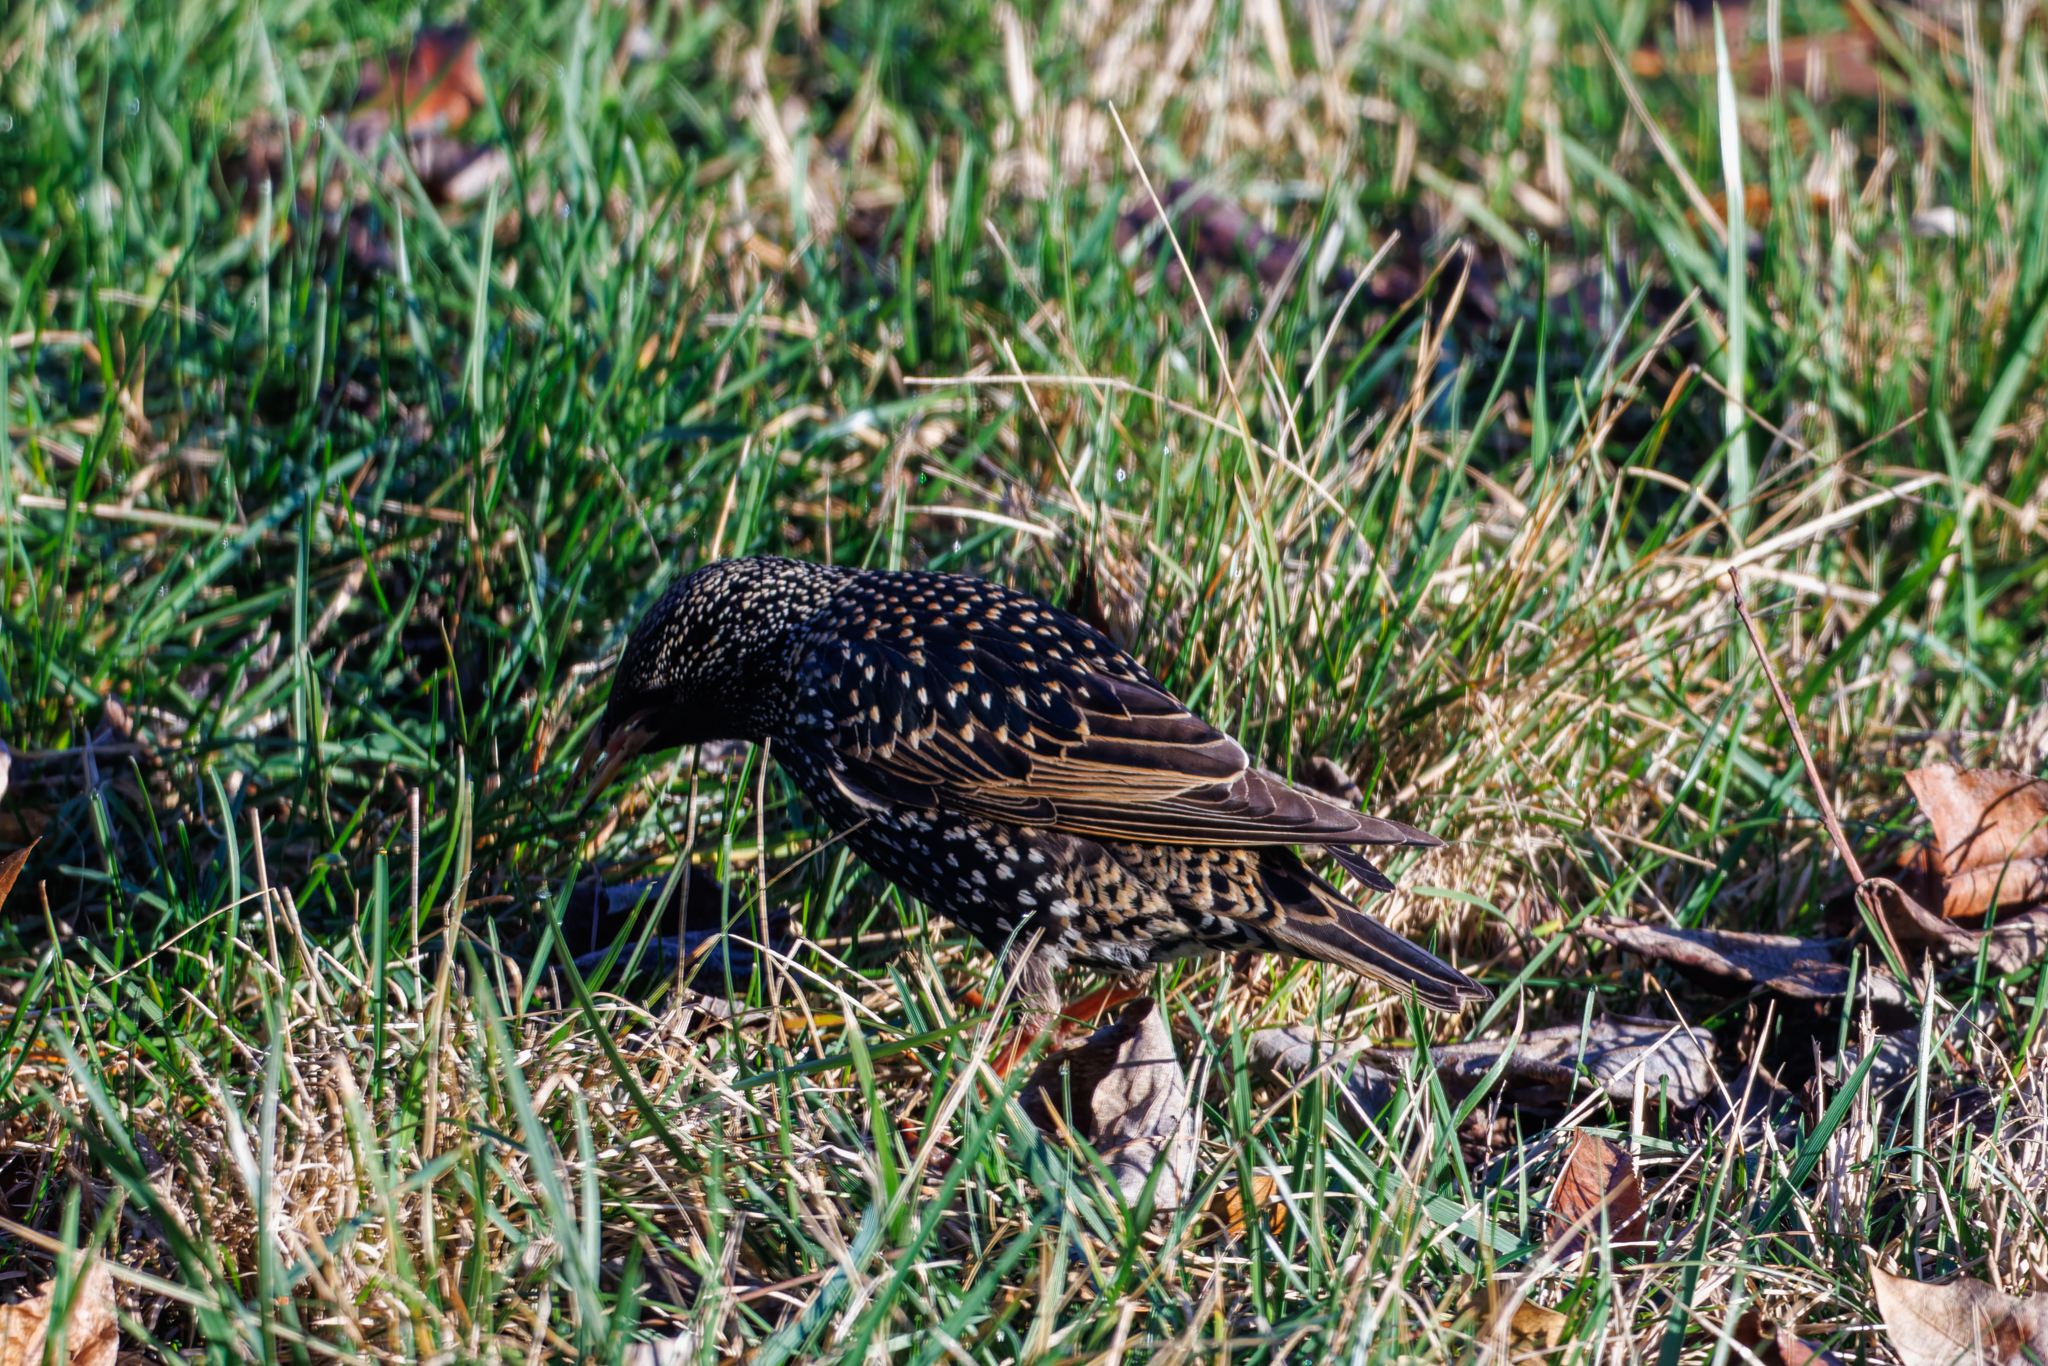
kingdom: Animalia
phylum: Chordata
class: Aves
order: Passeriformes
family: Sturnidae
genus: Sturnus
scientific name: Sturnus vulgaris
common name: Common starling
